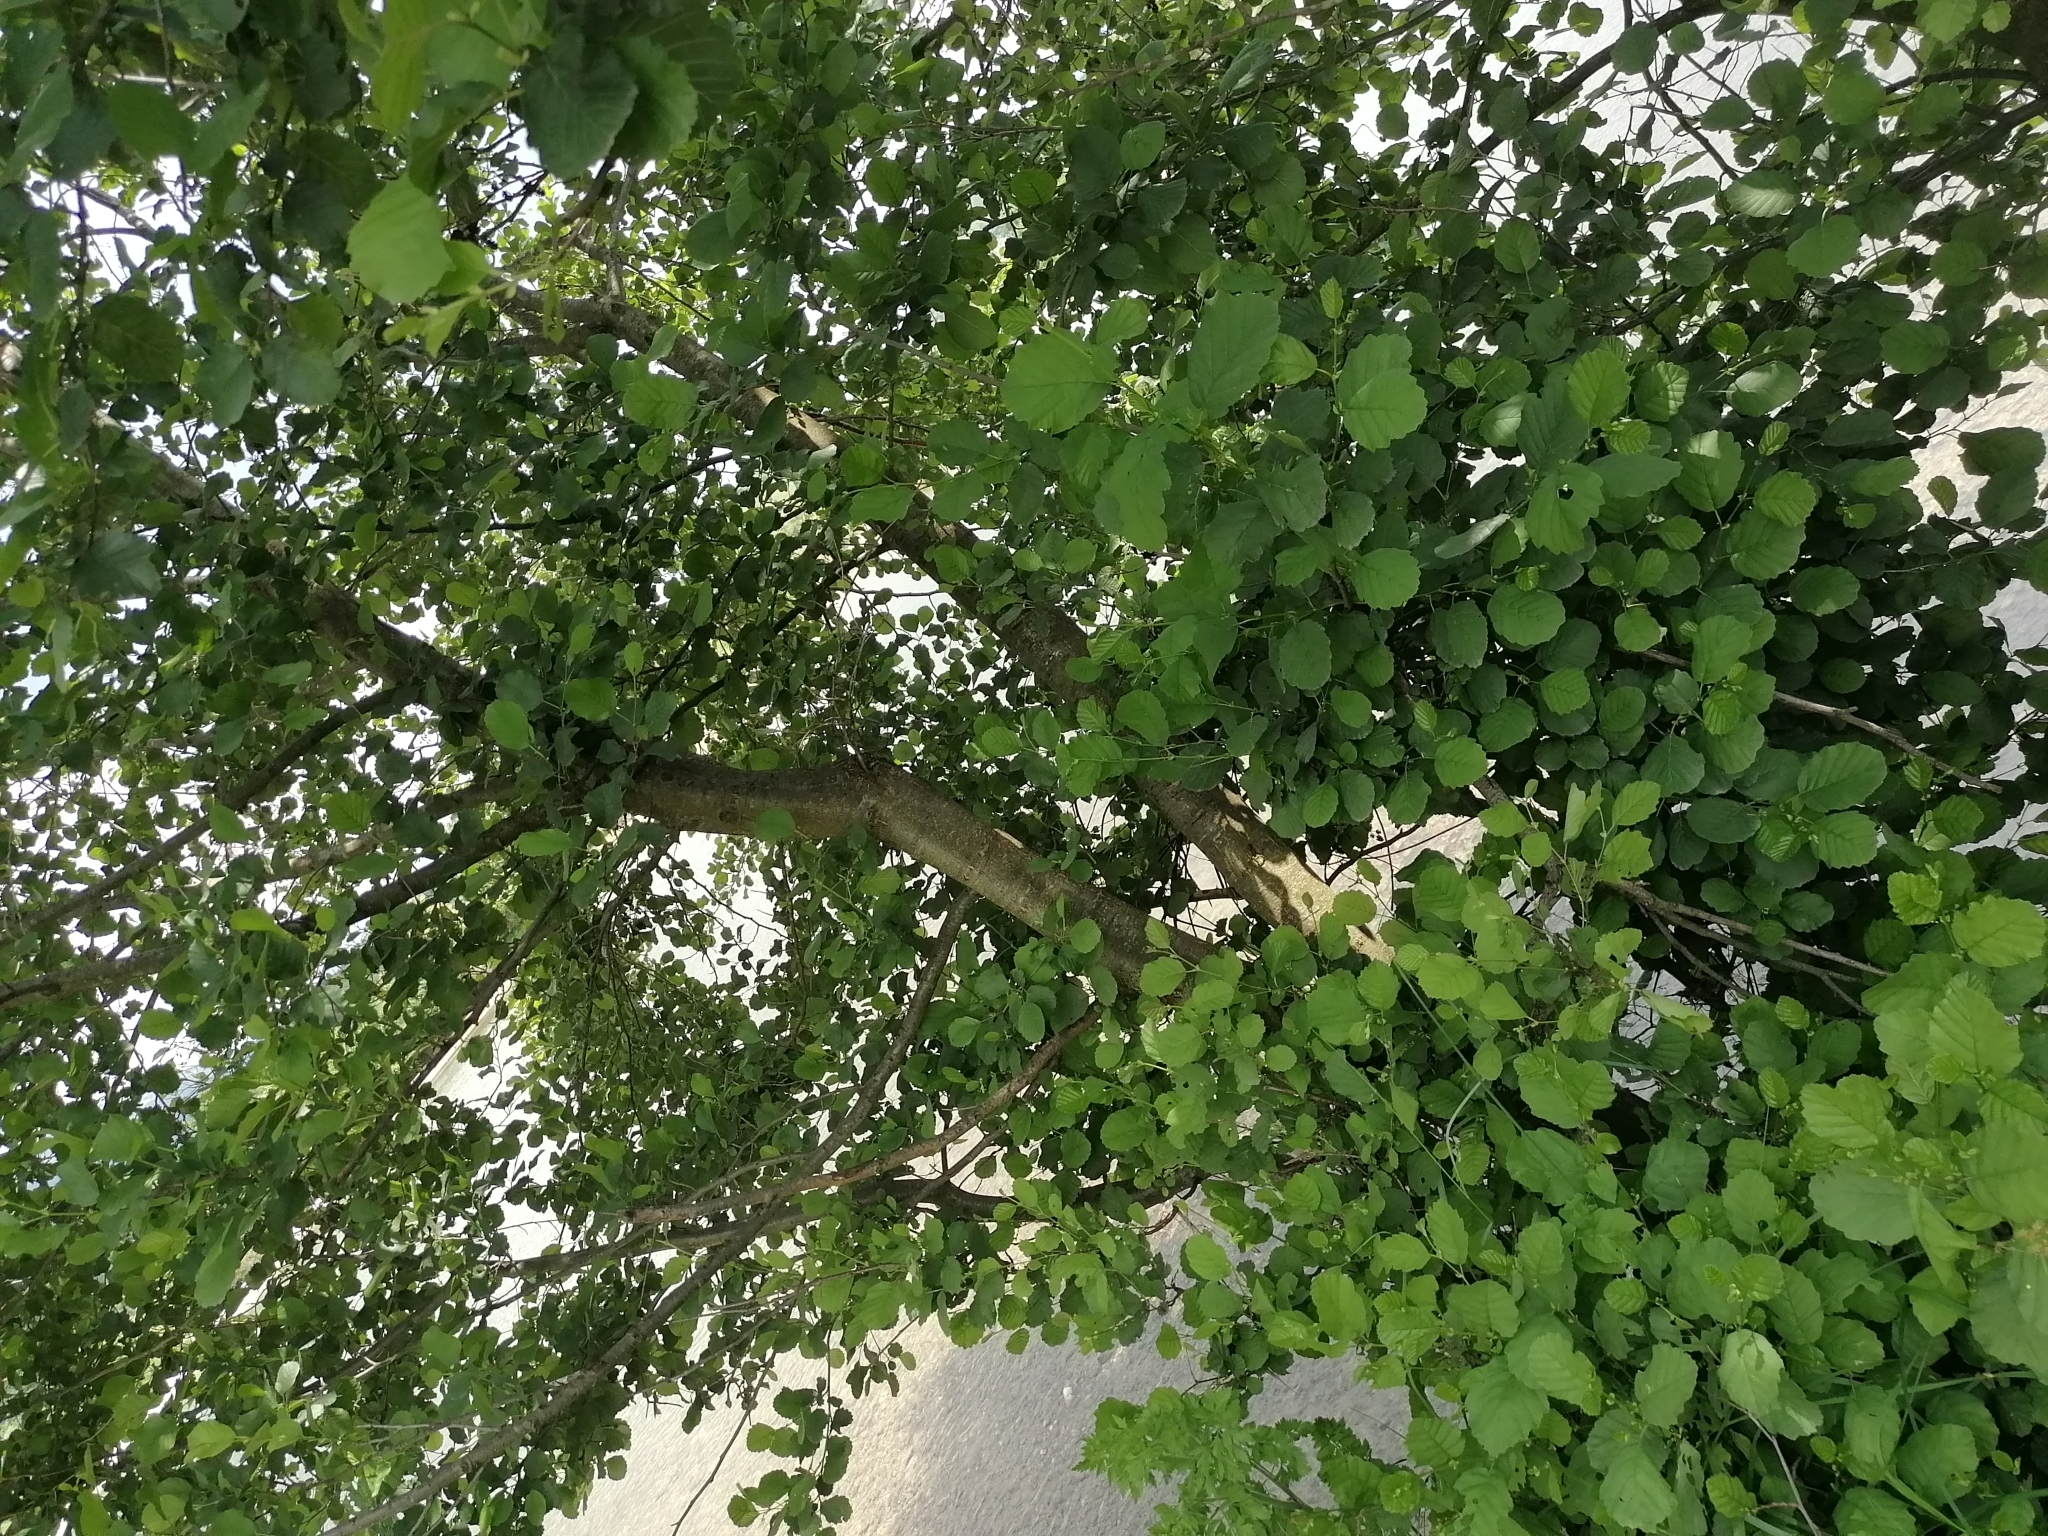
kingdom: Plantae
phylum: Tracheophyta
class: Magnoliopsida
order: Fagales
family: Betulaceae
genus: Alnus
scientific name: Alnus glutinosa
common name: Black alder
